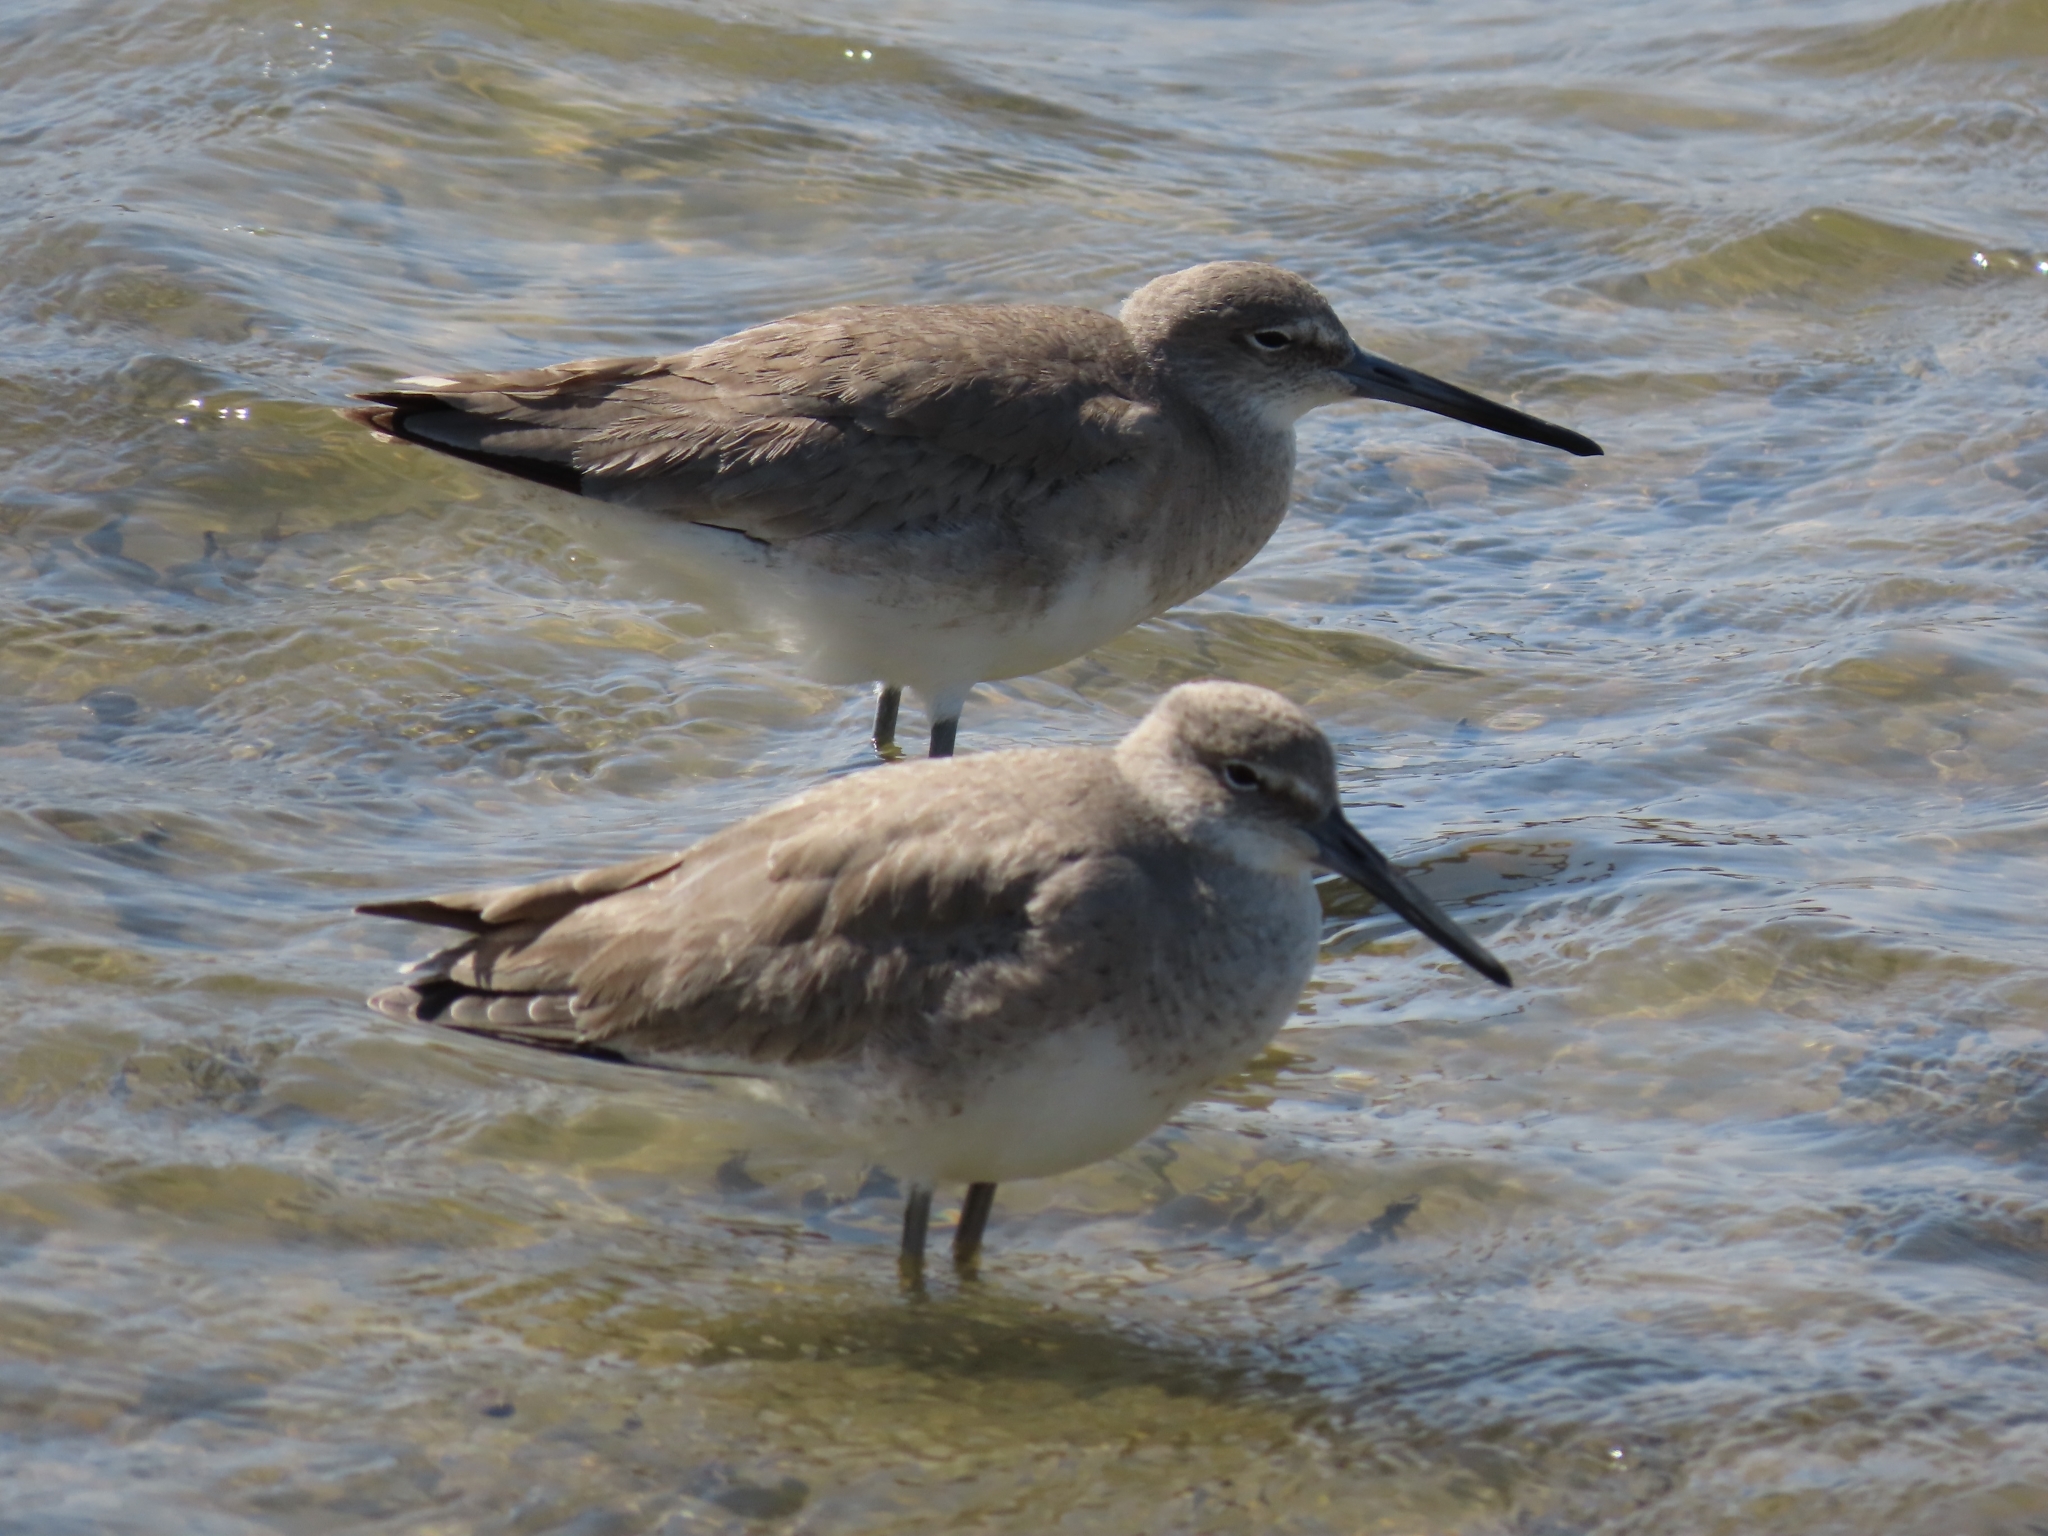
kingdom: Animalia
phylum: Chordata
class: Aves
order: Charadriiformes
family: Scolopacidae
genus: Tringa
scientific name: Tringa semipalmata
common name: Willet
